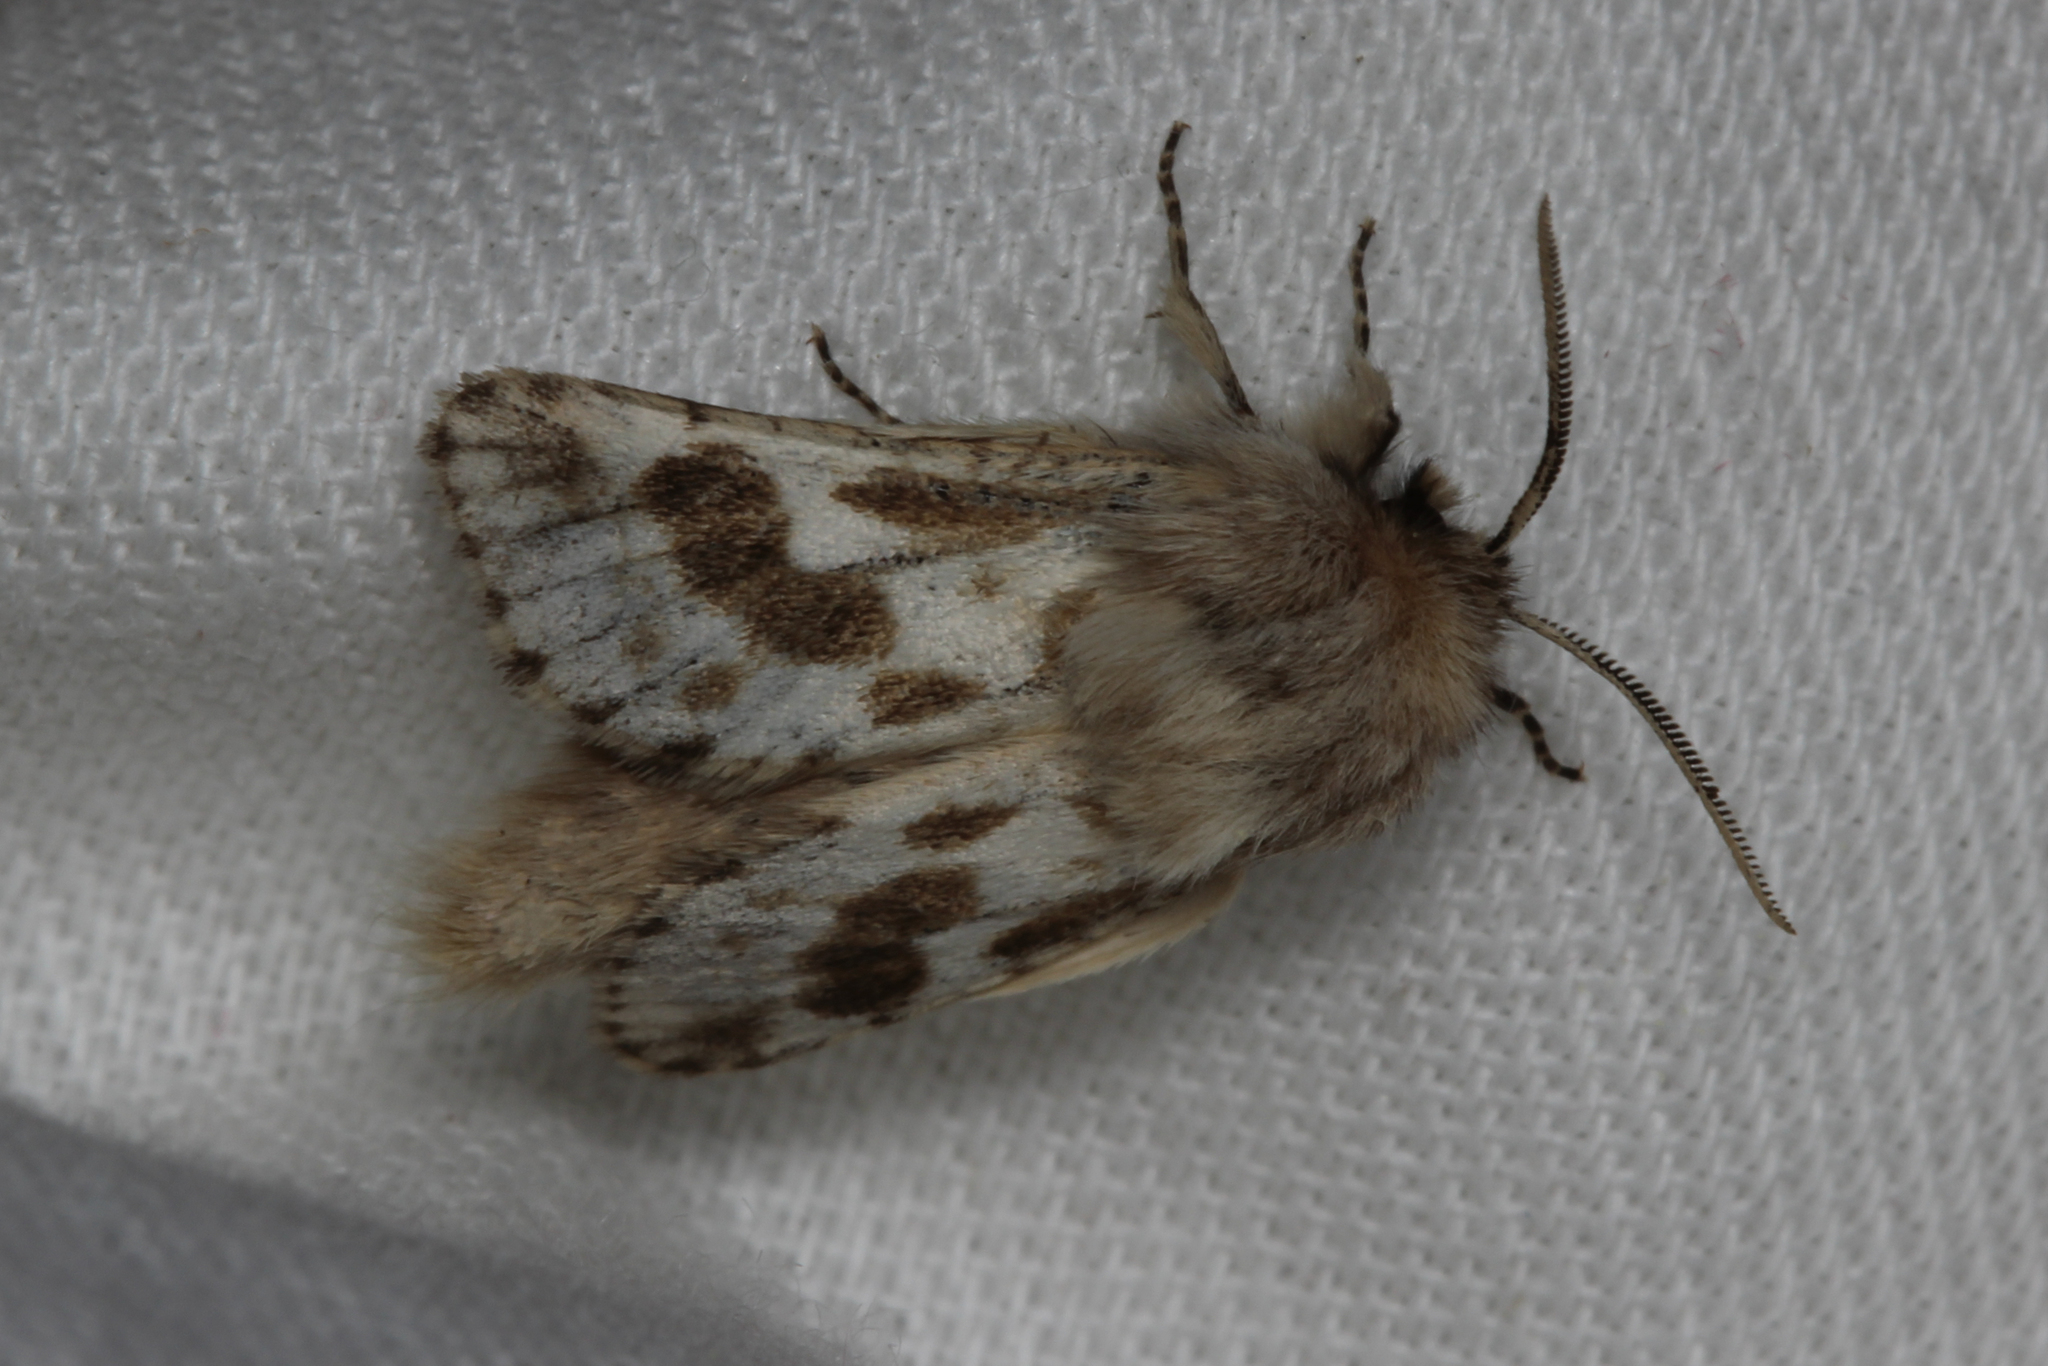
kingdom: Animalia
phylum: Arthropoda
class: Insecta
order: Lepidoptera
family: Cossidae
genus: Dyspessa
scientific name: Dyspessa ulula
